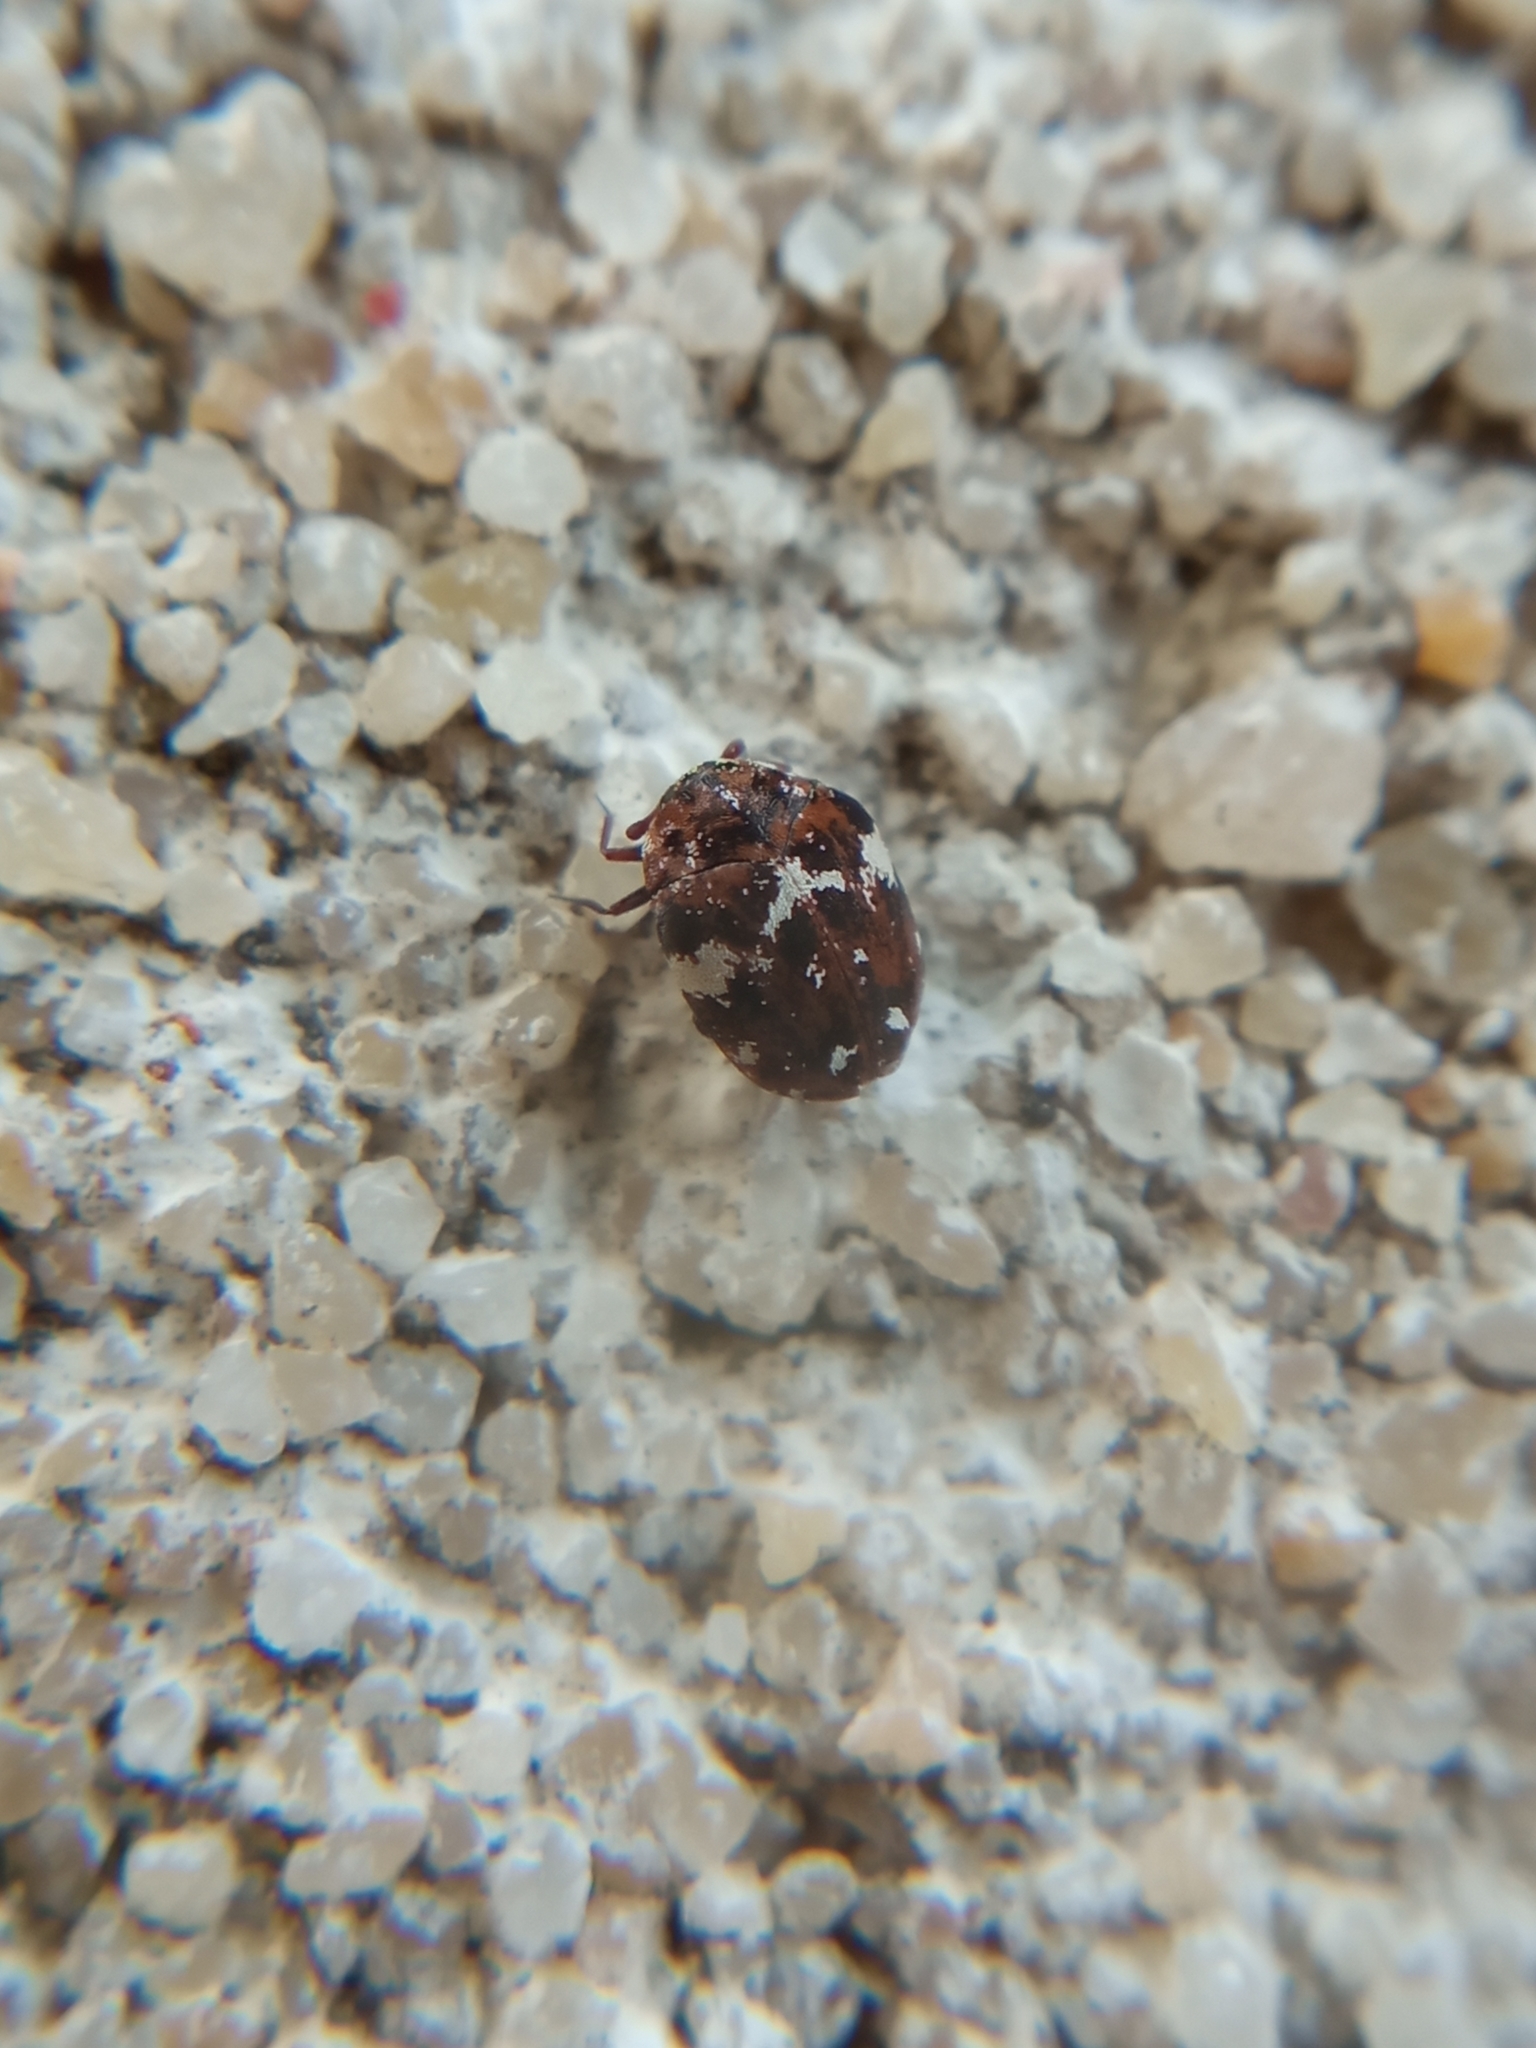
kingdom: Animalia
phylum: Arthropoda
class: Insecta
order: Coleoptera
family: Dermestidae
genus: Anthrenus
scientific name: Anthrenus angustefasciatus
